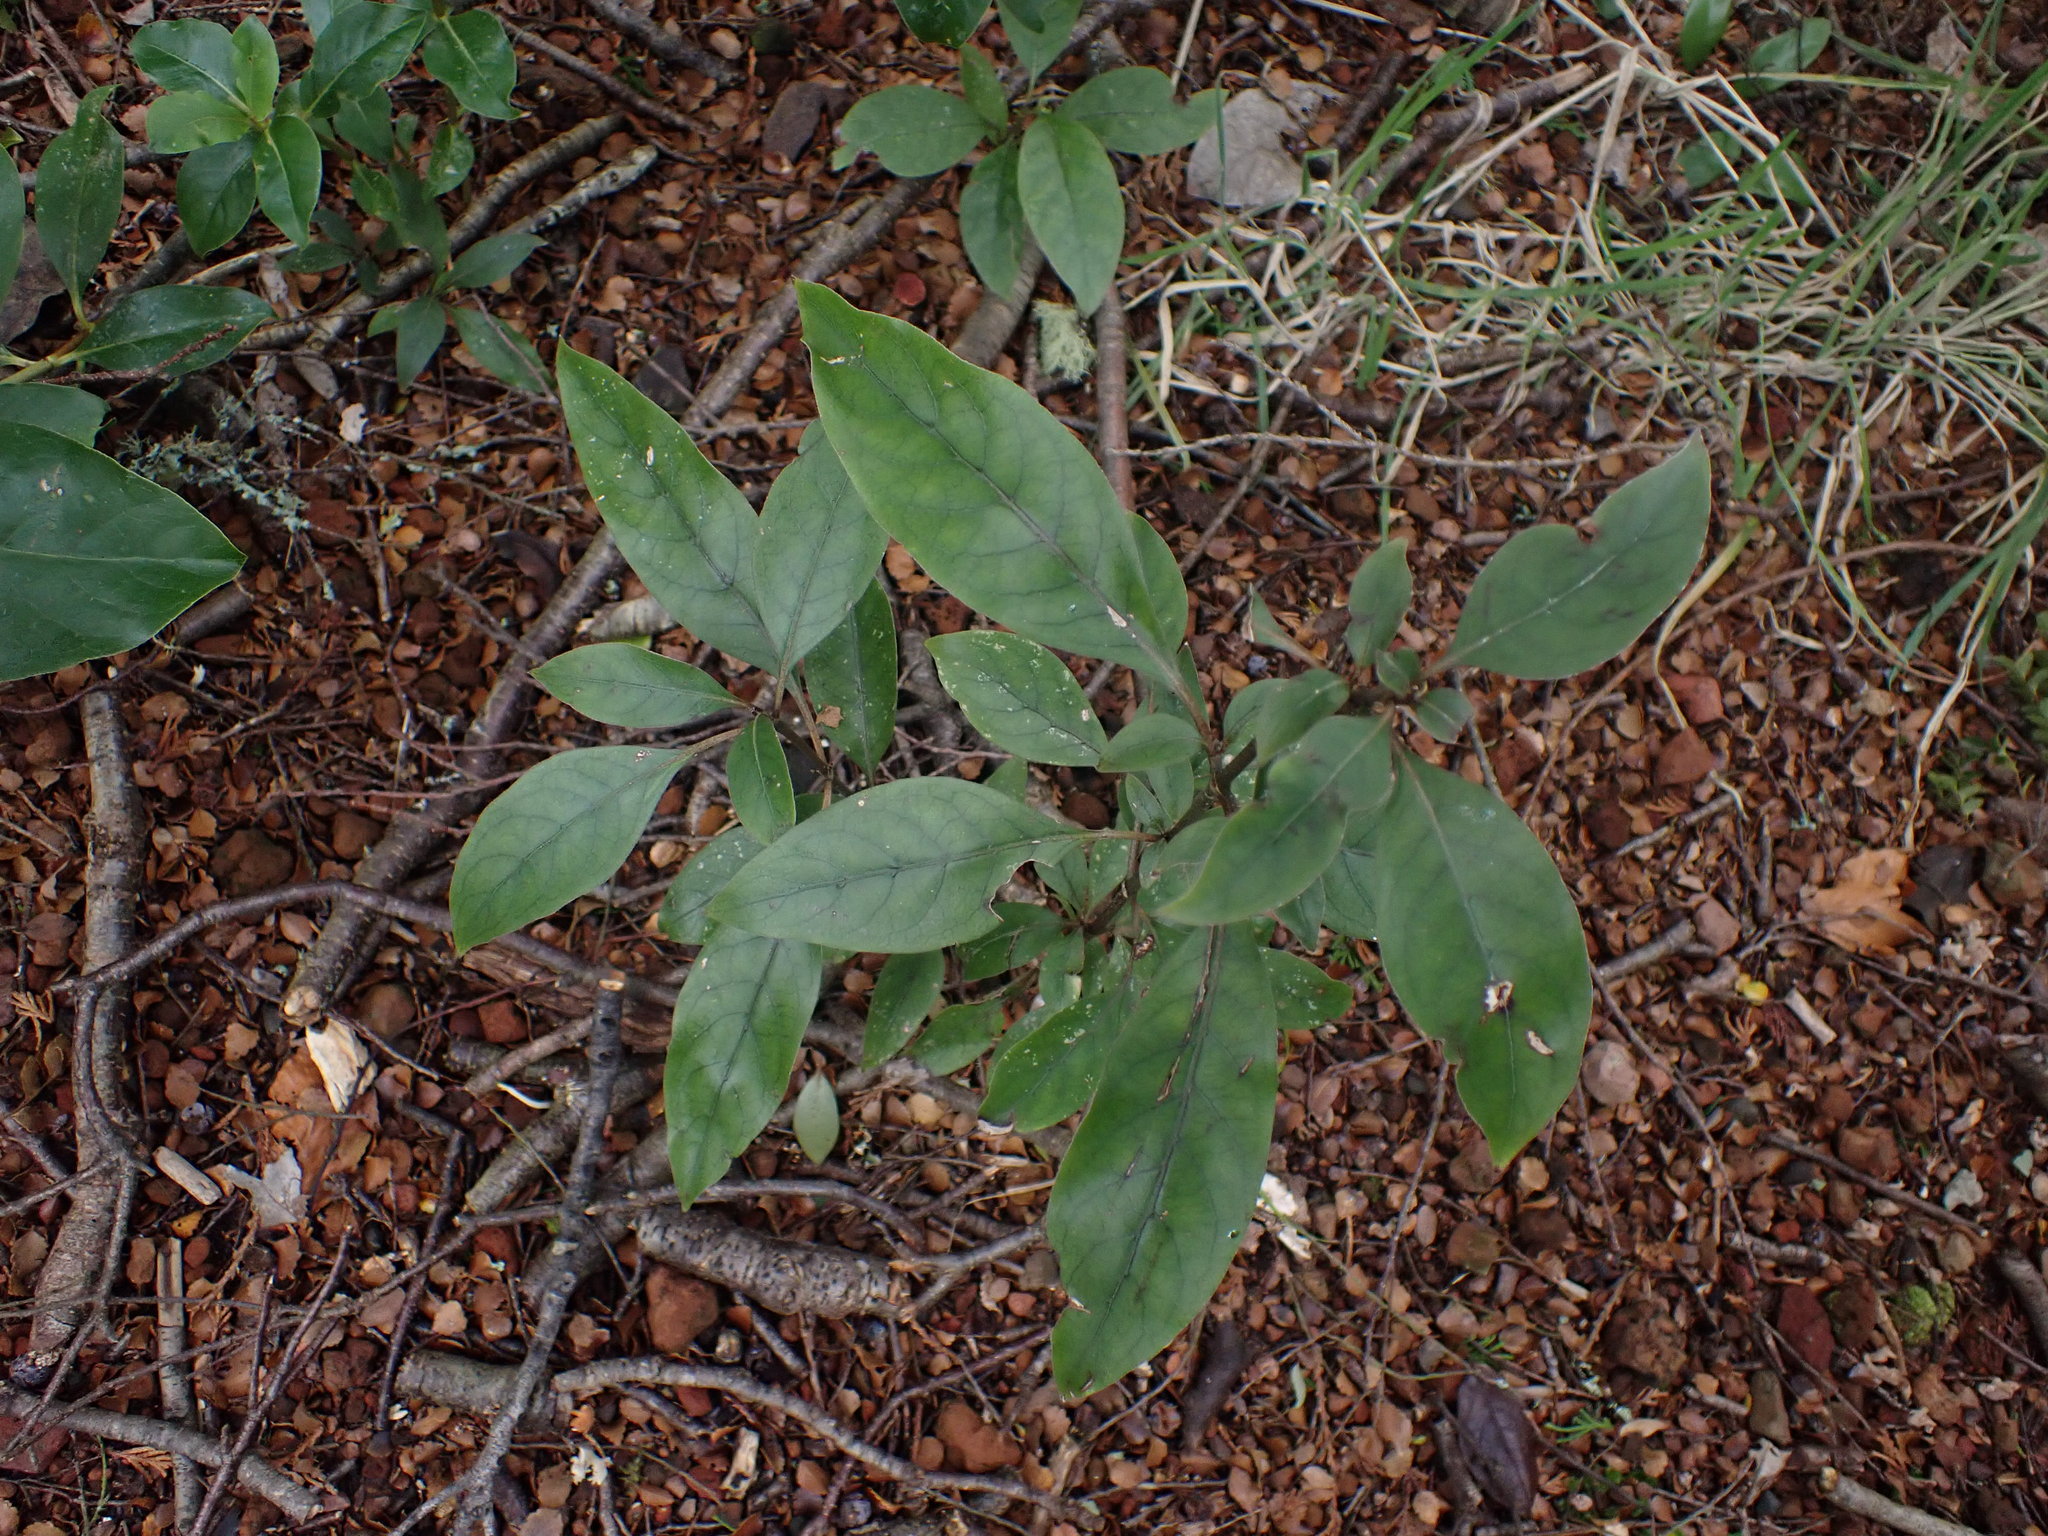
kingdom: Plantae
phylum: Tracheophyta
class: Magnoliopsida
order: Gentianales
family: Rubiaceae
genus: Coprosma
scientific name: Coprosma tenuifolia
